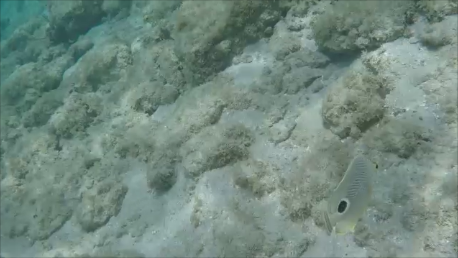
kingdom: Animalia
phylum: Chordata
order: Perciformes
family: Chaetodontidae
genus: Chaetodon
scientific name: Chaetodon capistratus
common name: Kete
